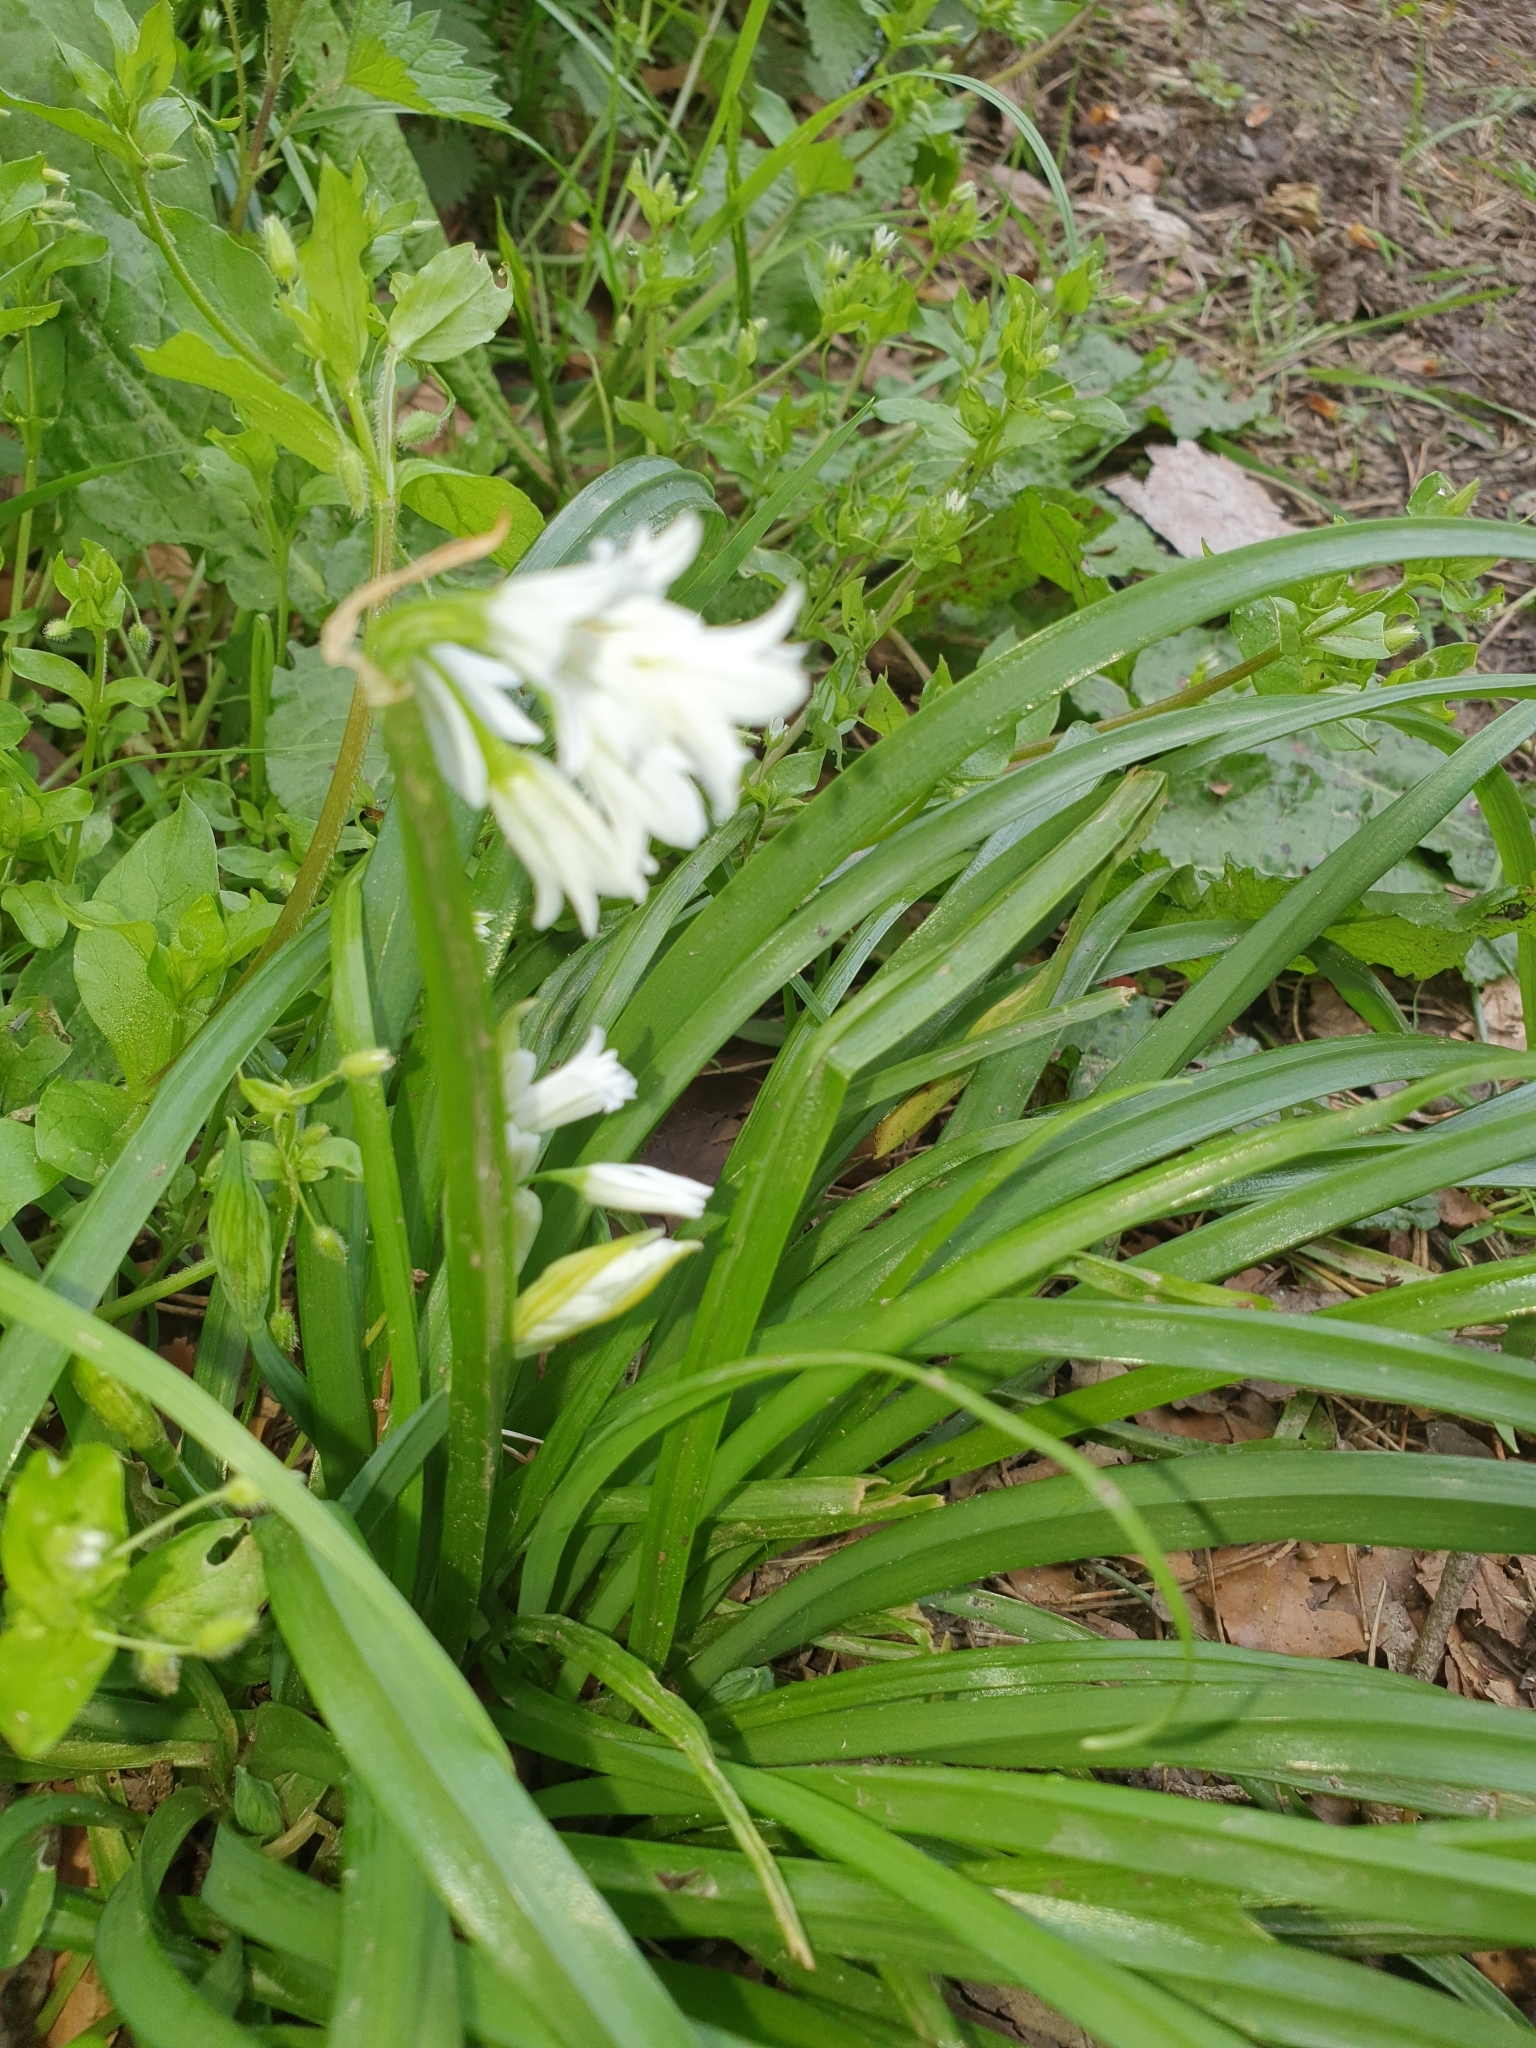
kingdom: Plantae
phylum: Tracheophyta
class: Liliopsida
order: Asparagales
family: Amaryllidaceae
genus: Allium
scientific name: Allium triquetrum
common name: Three-cornered garlic
